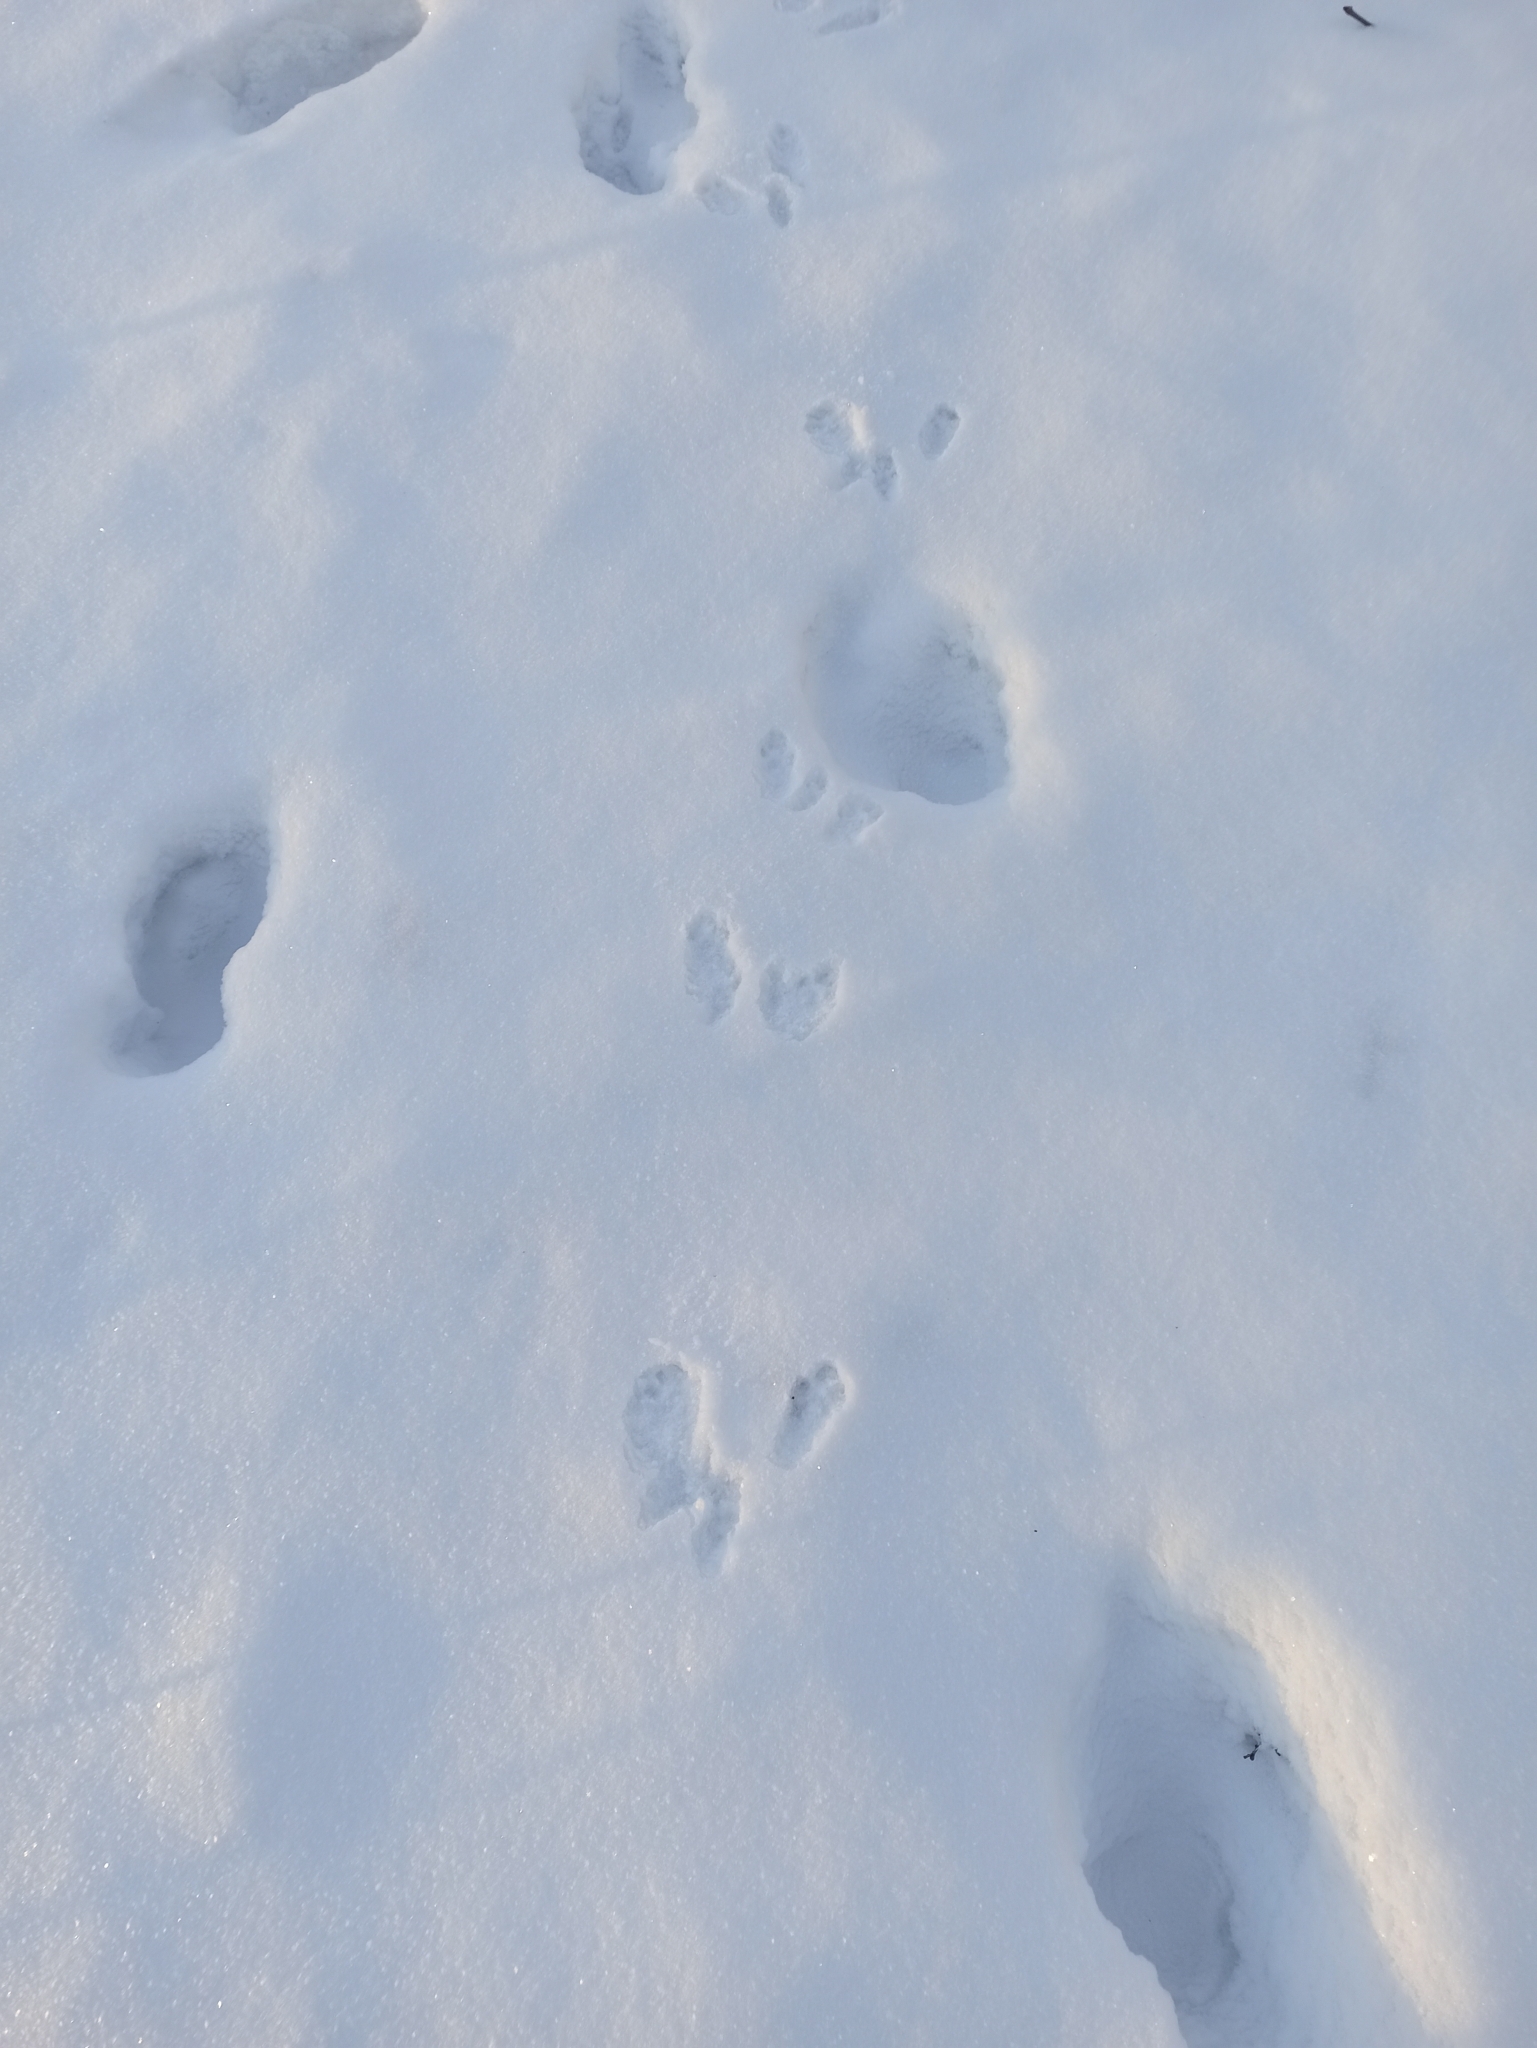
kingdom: Animalia
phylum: Chordata
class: Mammalia
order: Rodentia
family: Sciuridae
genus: Sciurus
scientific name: Sciurus vulgaris
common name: Eurasian red squirrel
